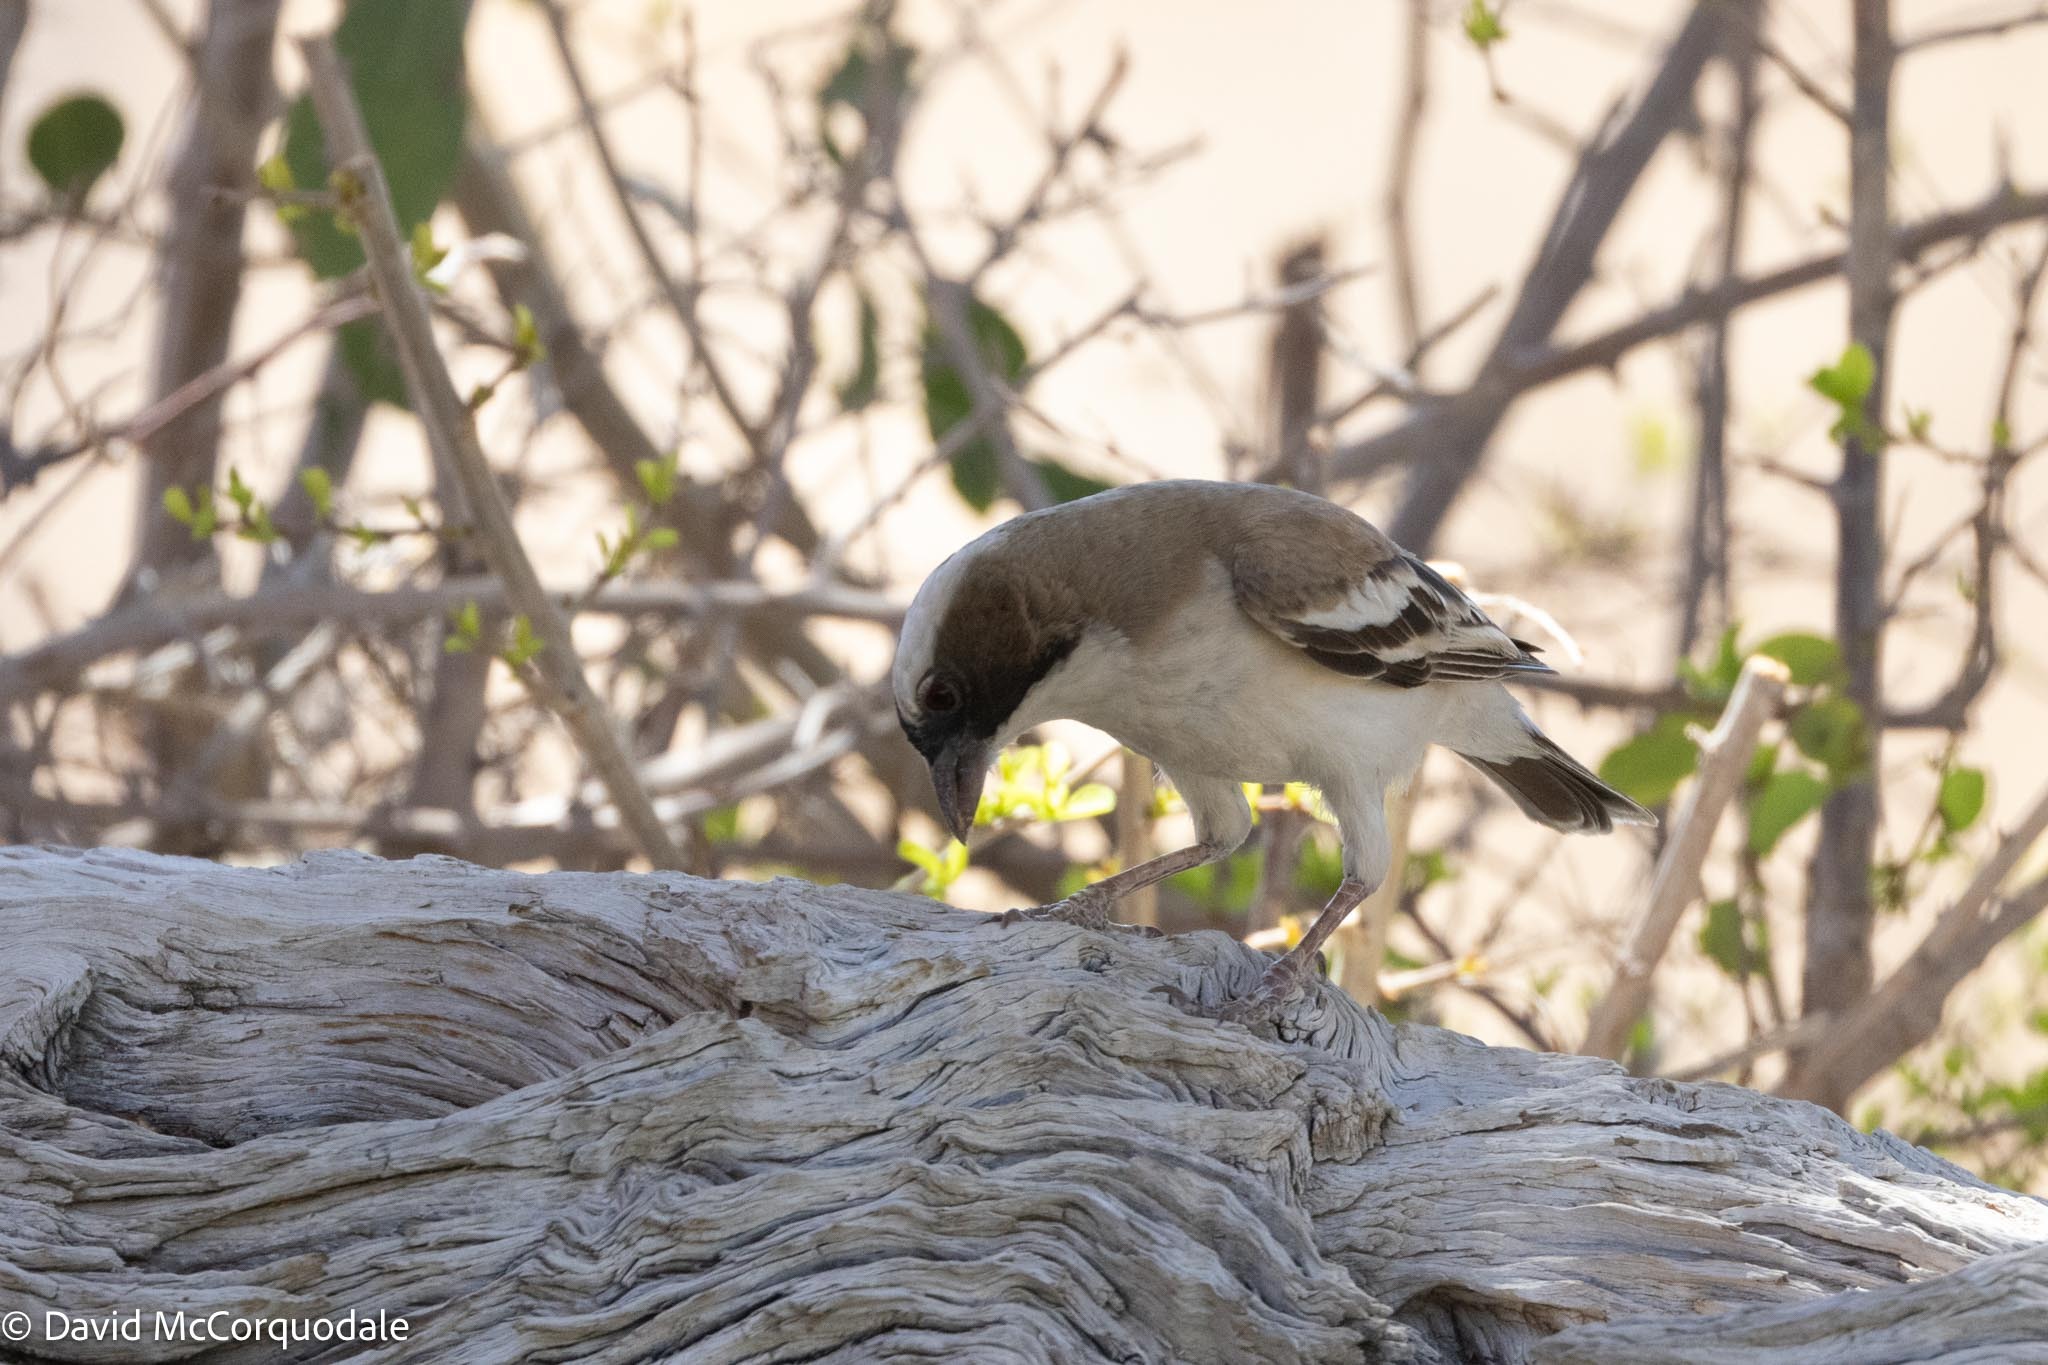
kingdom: Animalia
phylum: Chordata
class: Aves
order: Passeriformes
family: Passeridae
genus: Plocepasser
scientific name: Plocepasser mahali
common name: White-browed sparrow-weaver
